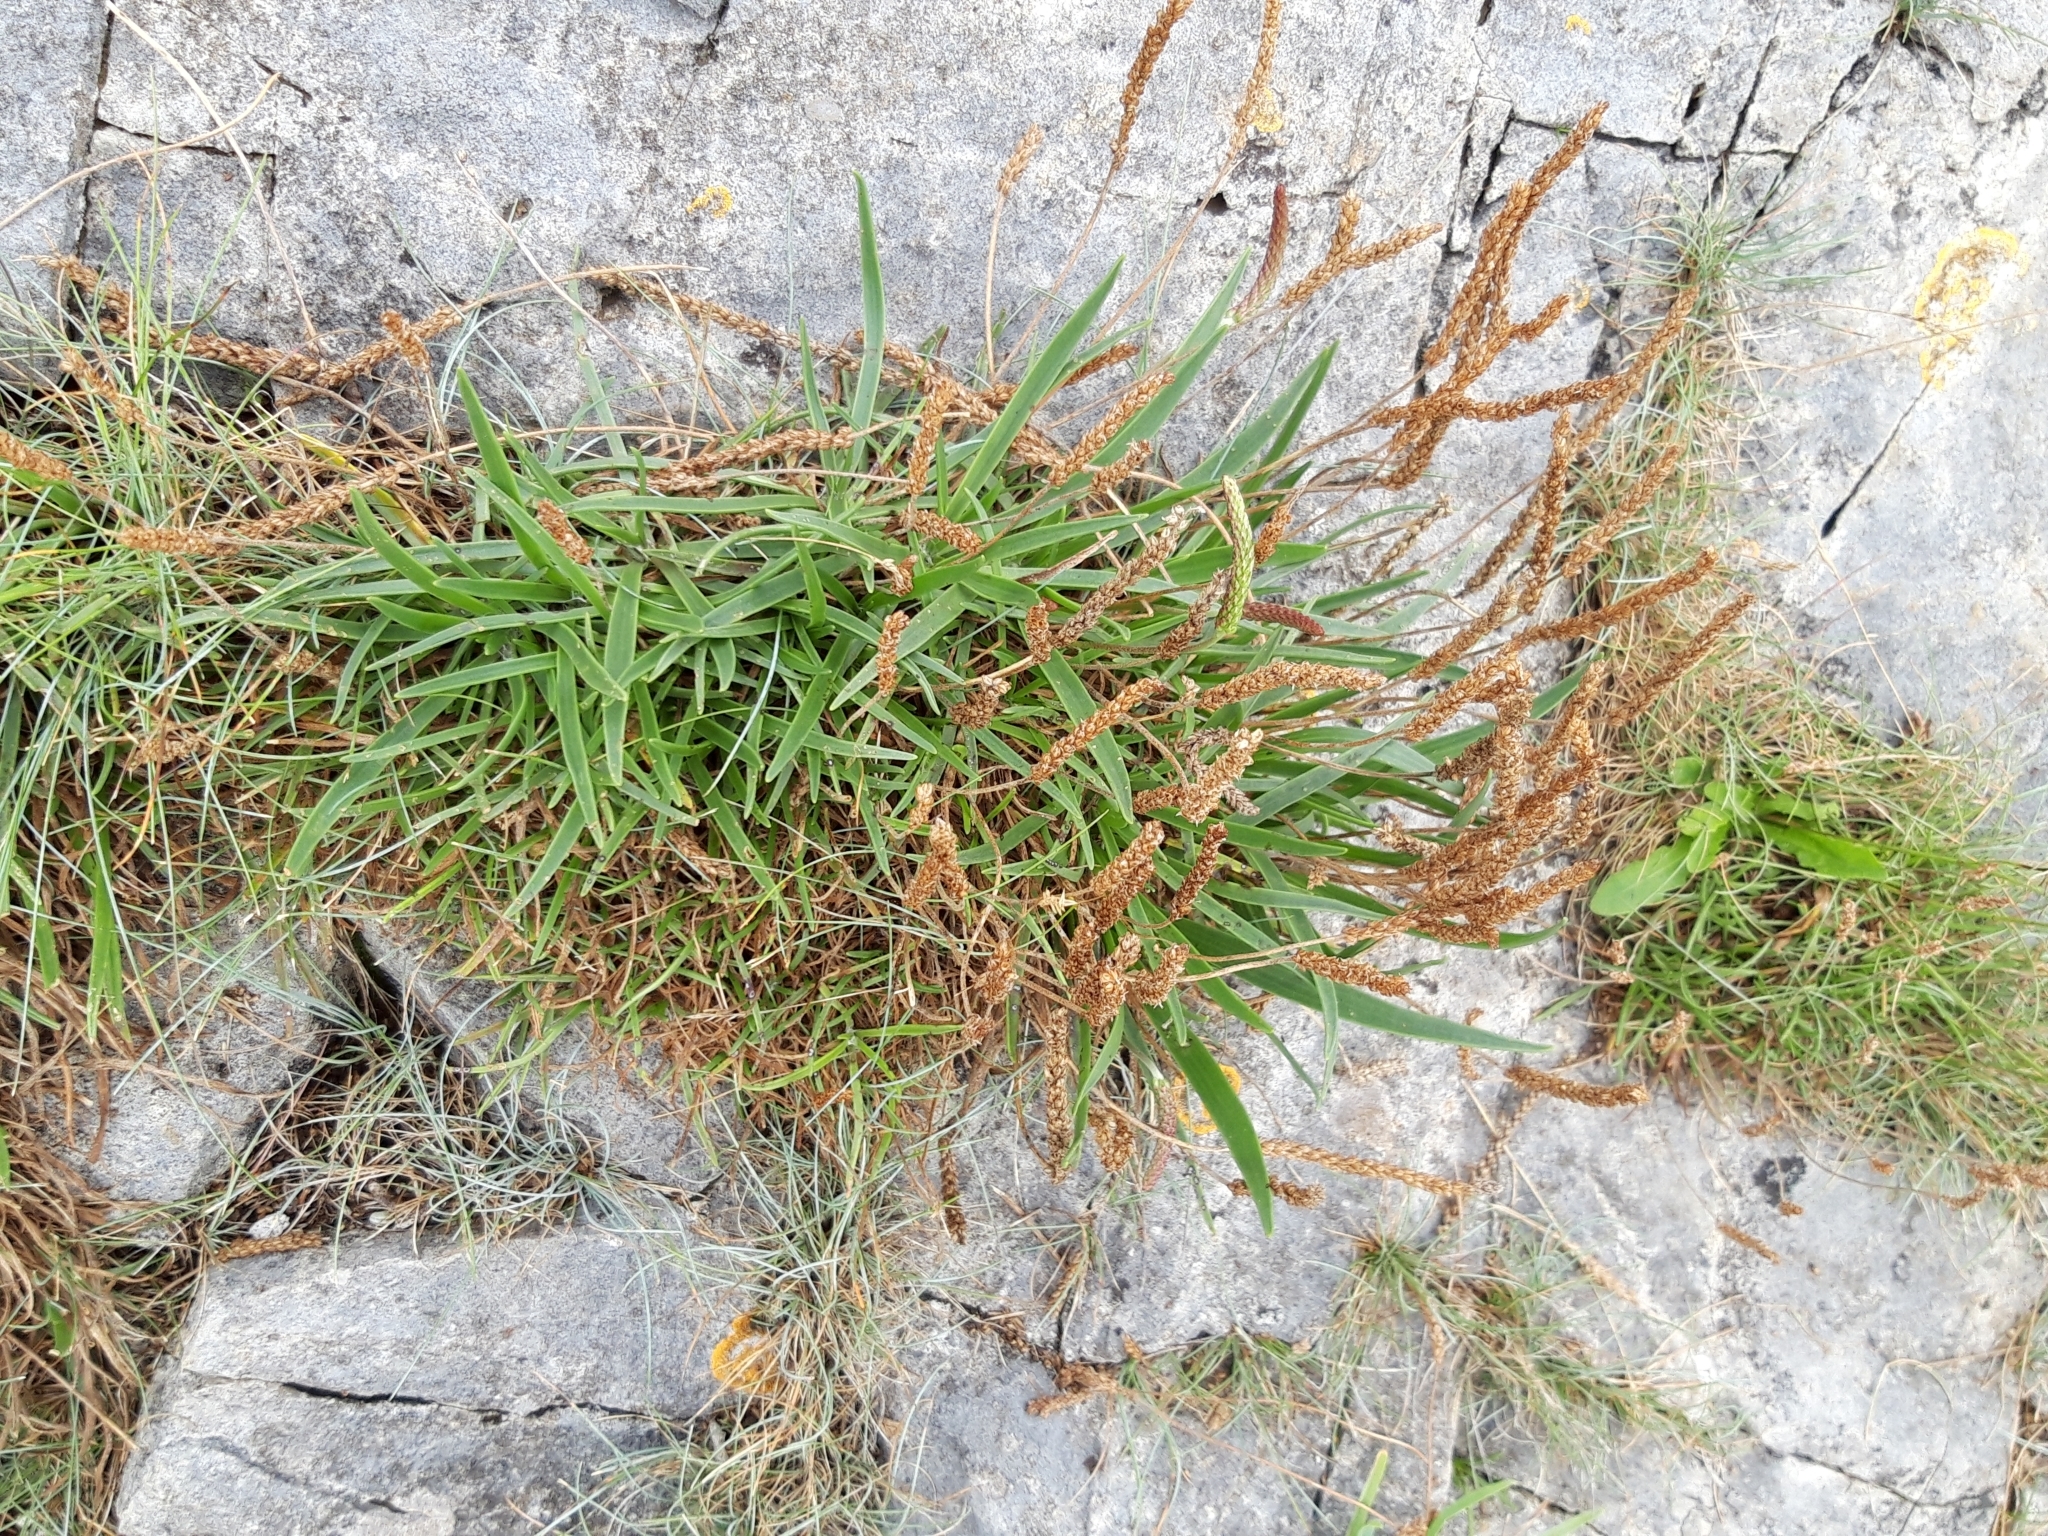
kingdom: Plantae
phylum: Tracheophyta
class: Magnoliopsida
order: Lamiales
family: Plantaginaceae
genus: Plantago
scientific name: Plantago maritima
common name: Sea plantain
